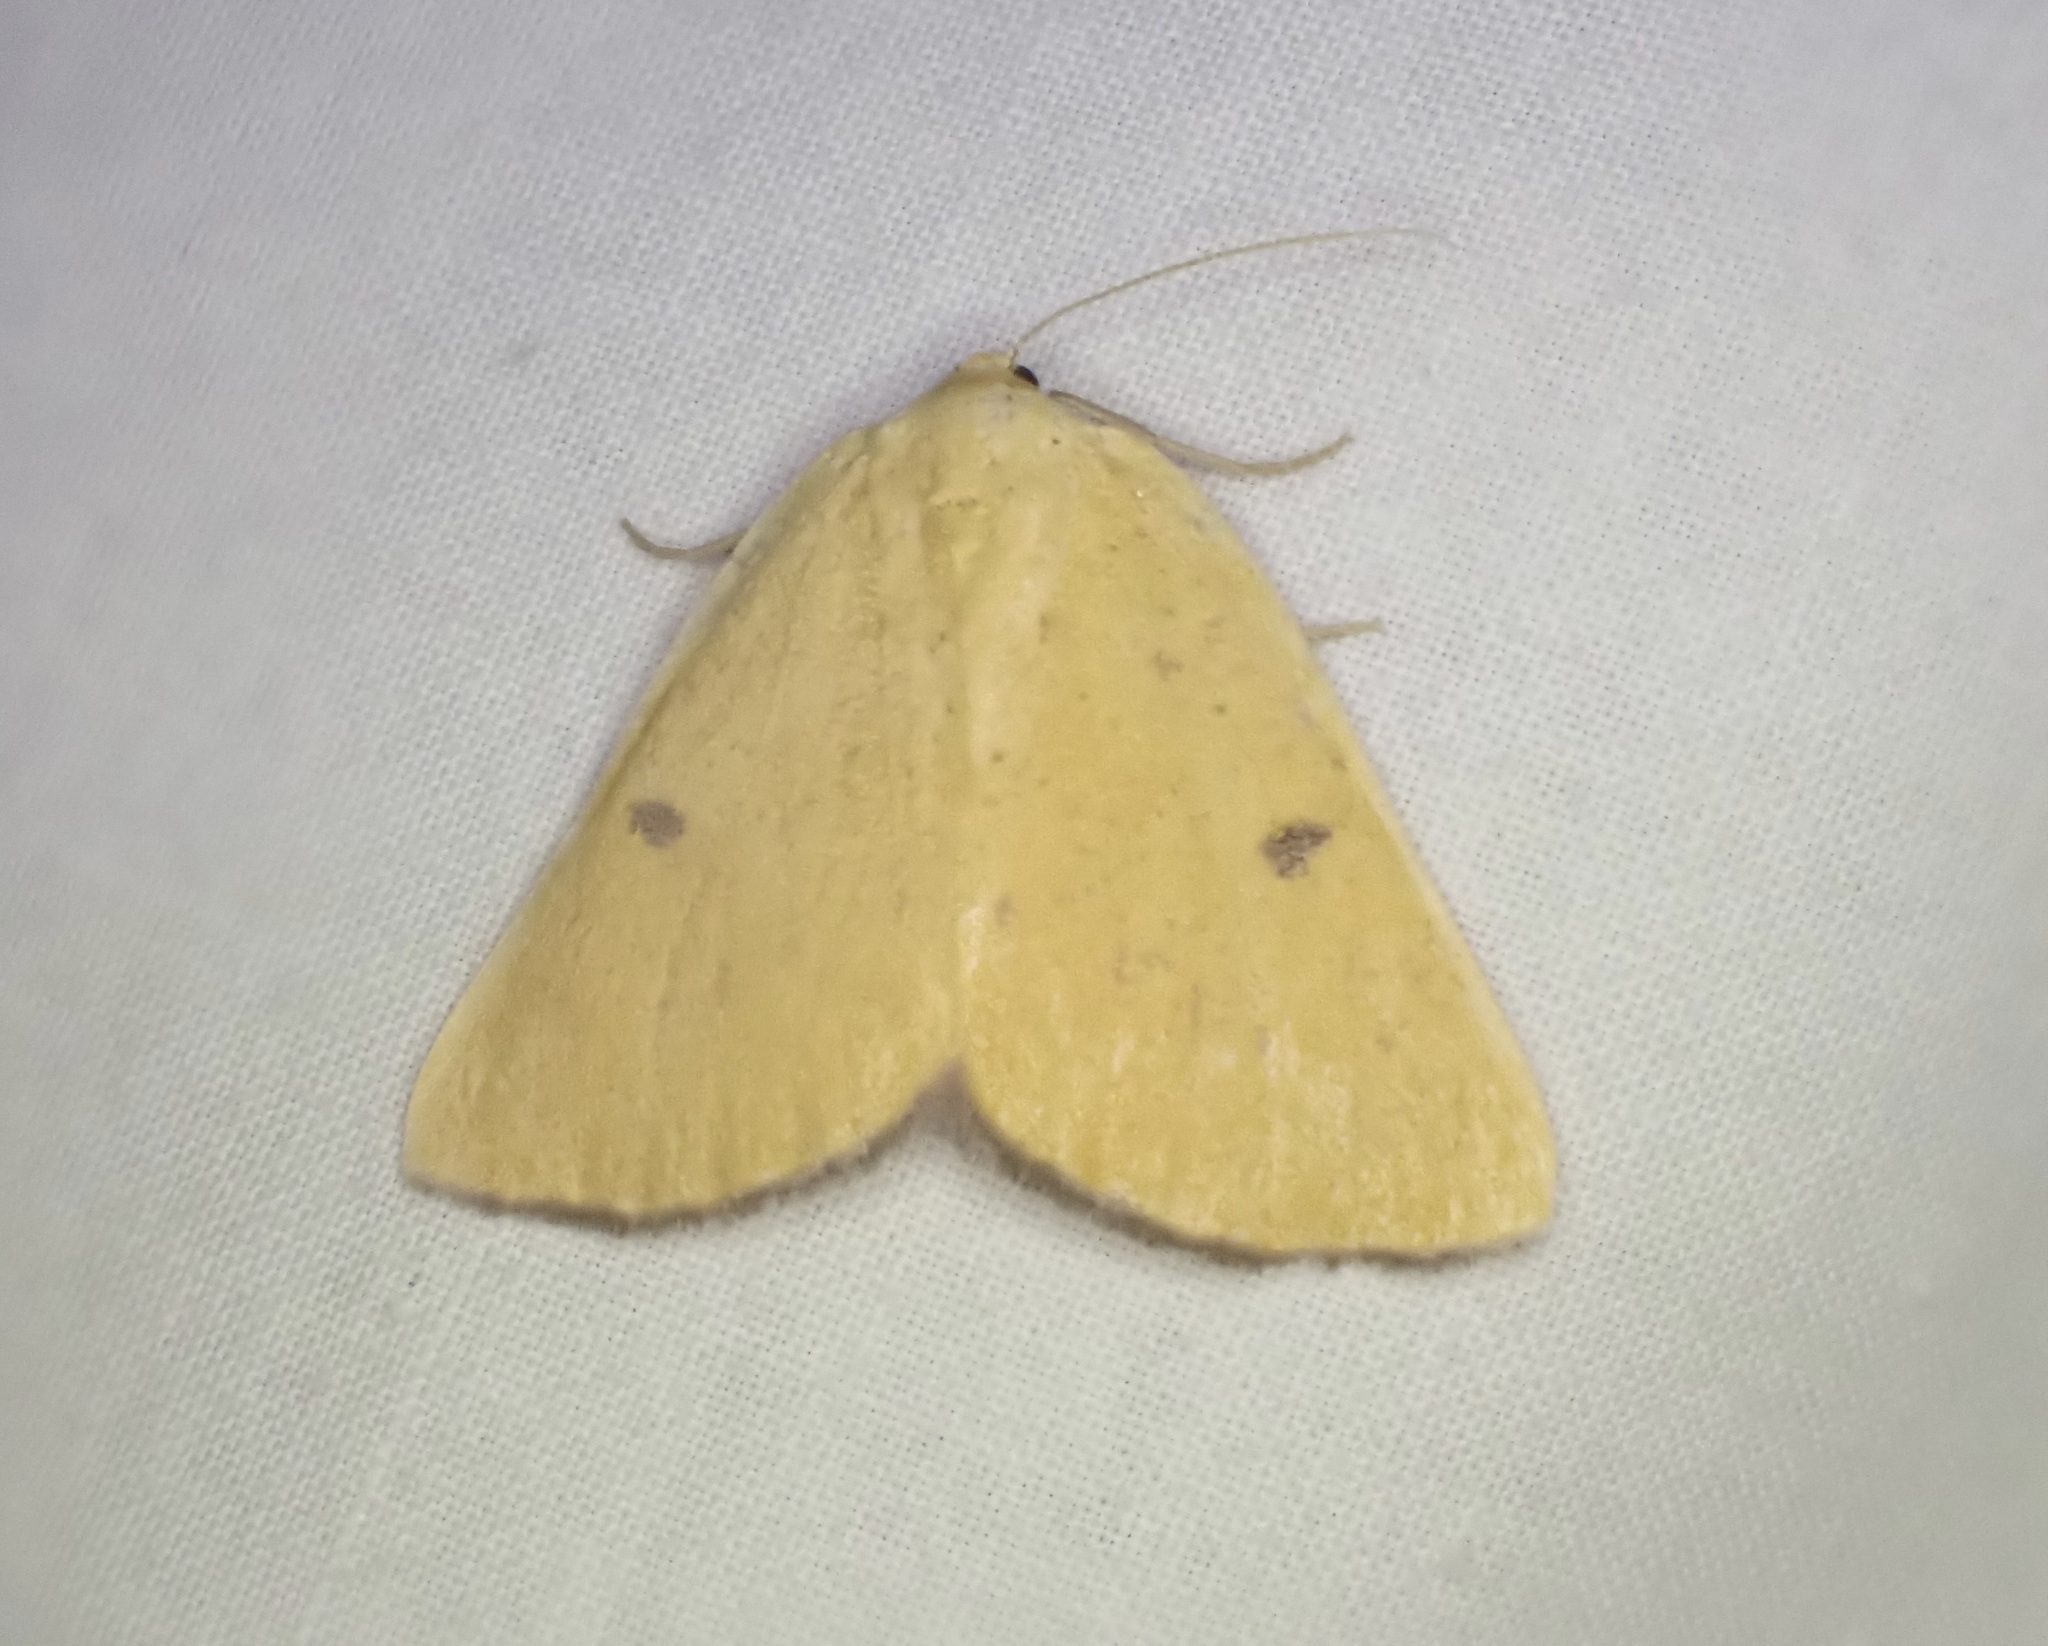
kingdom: Animalia
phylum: Arthropoda
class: Insecta
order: Lepidoptera
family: Geometridae
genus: Hesperumia
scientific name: Hesperumia sulphuraria
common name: Sulphur moth
